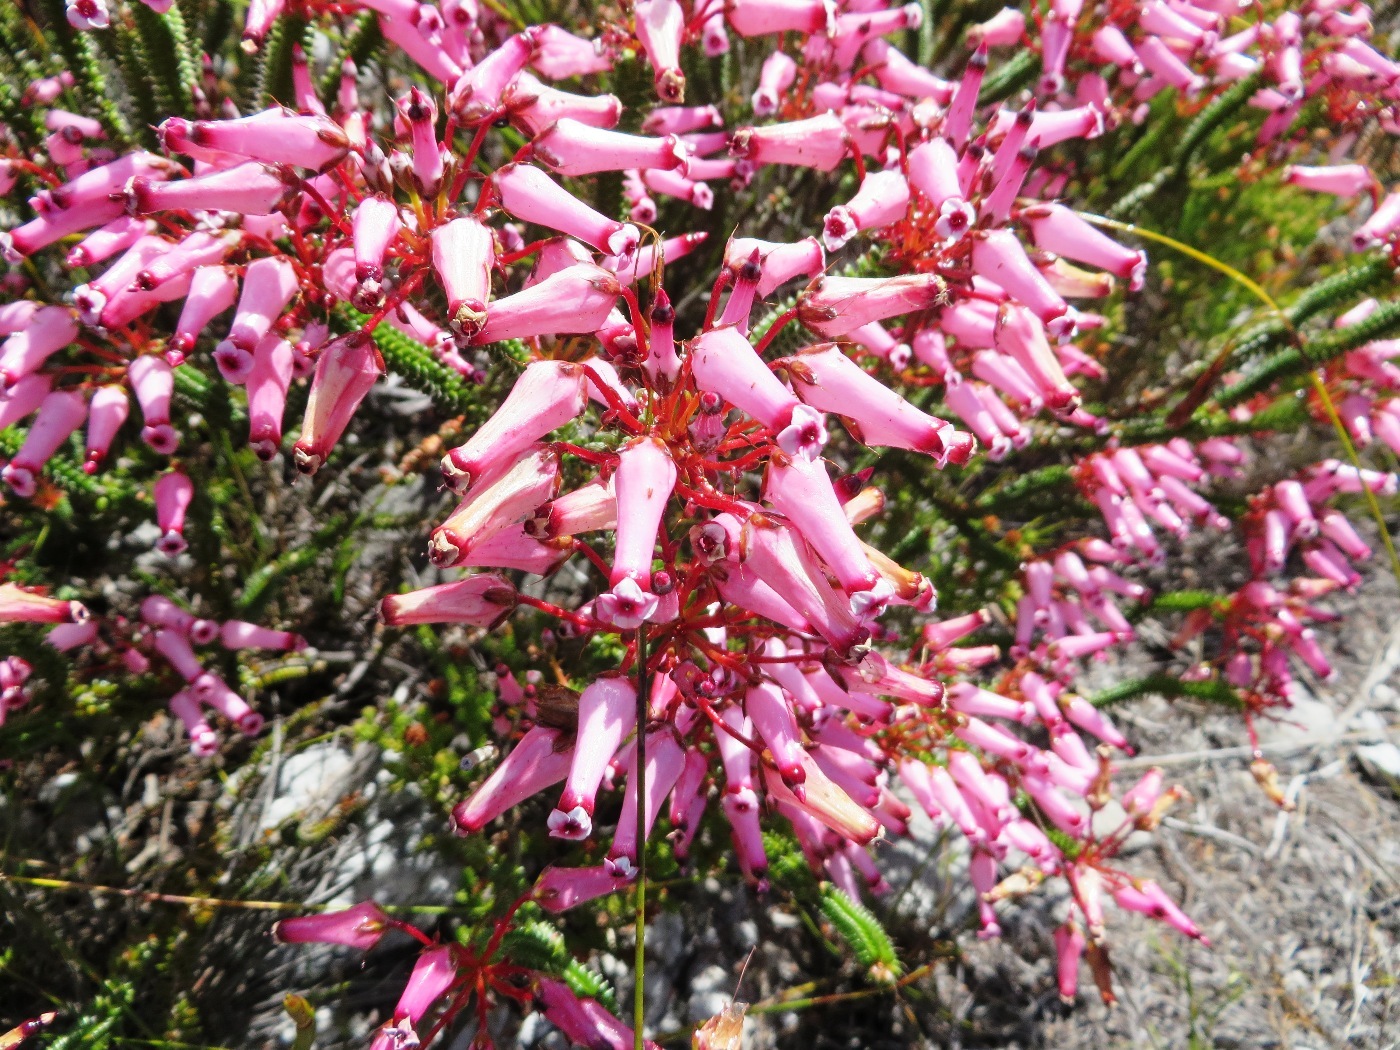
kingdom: Plantae
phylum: Tracheophyta
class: Magnoliopsida
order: Ericales
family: Ericaceae
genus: Erica
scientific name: Erica retorta
